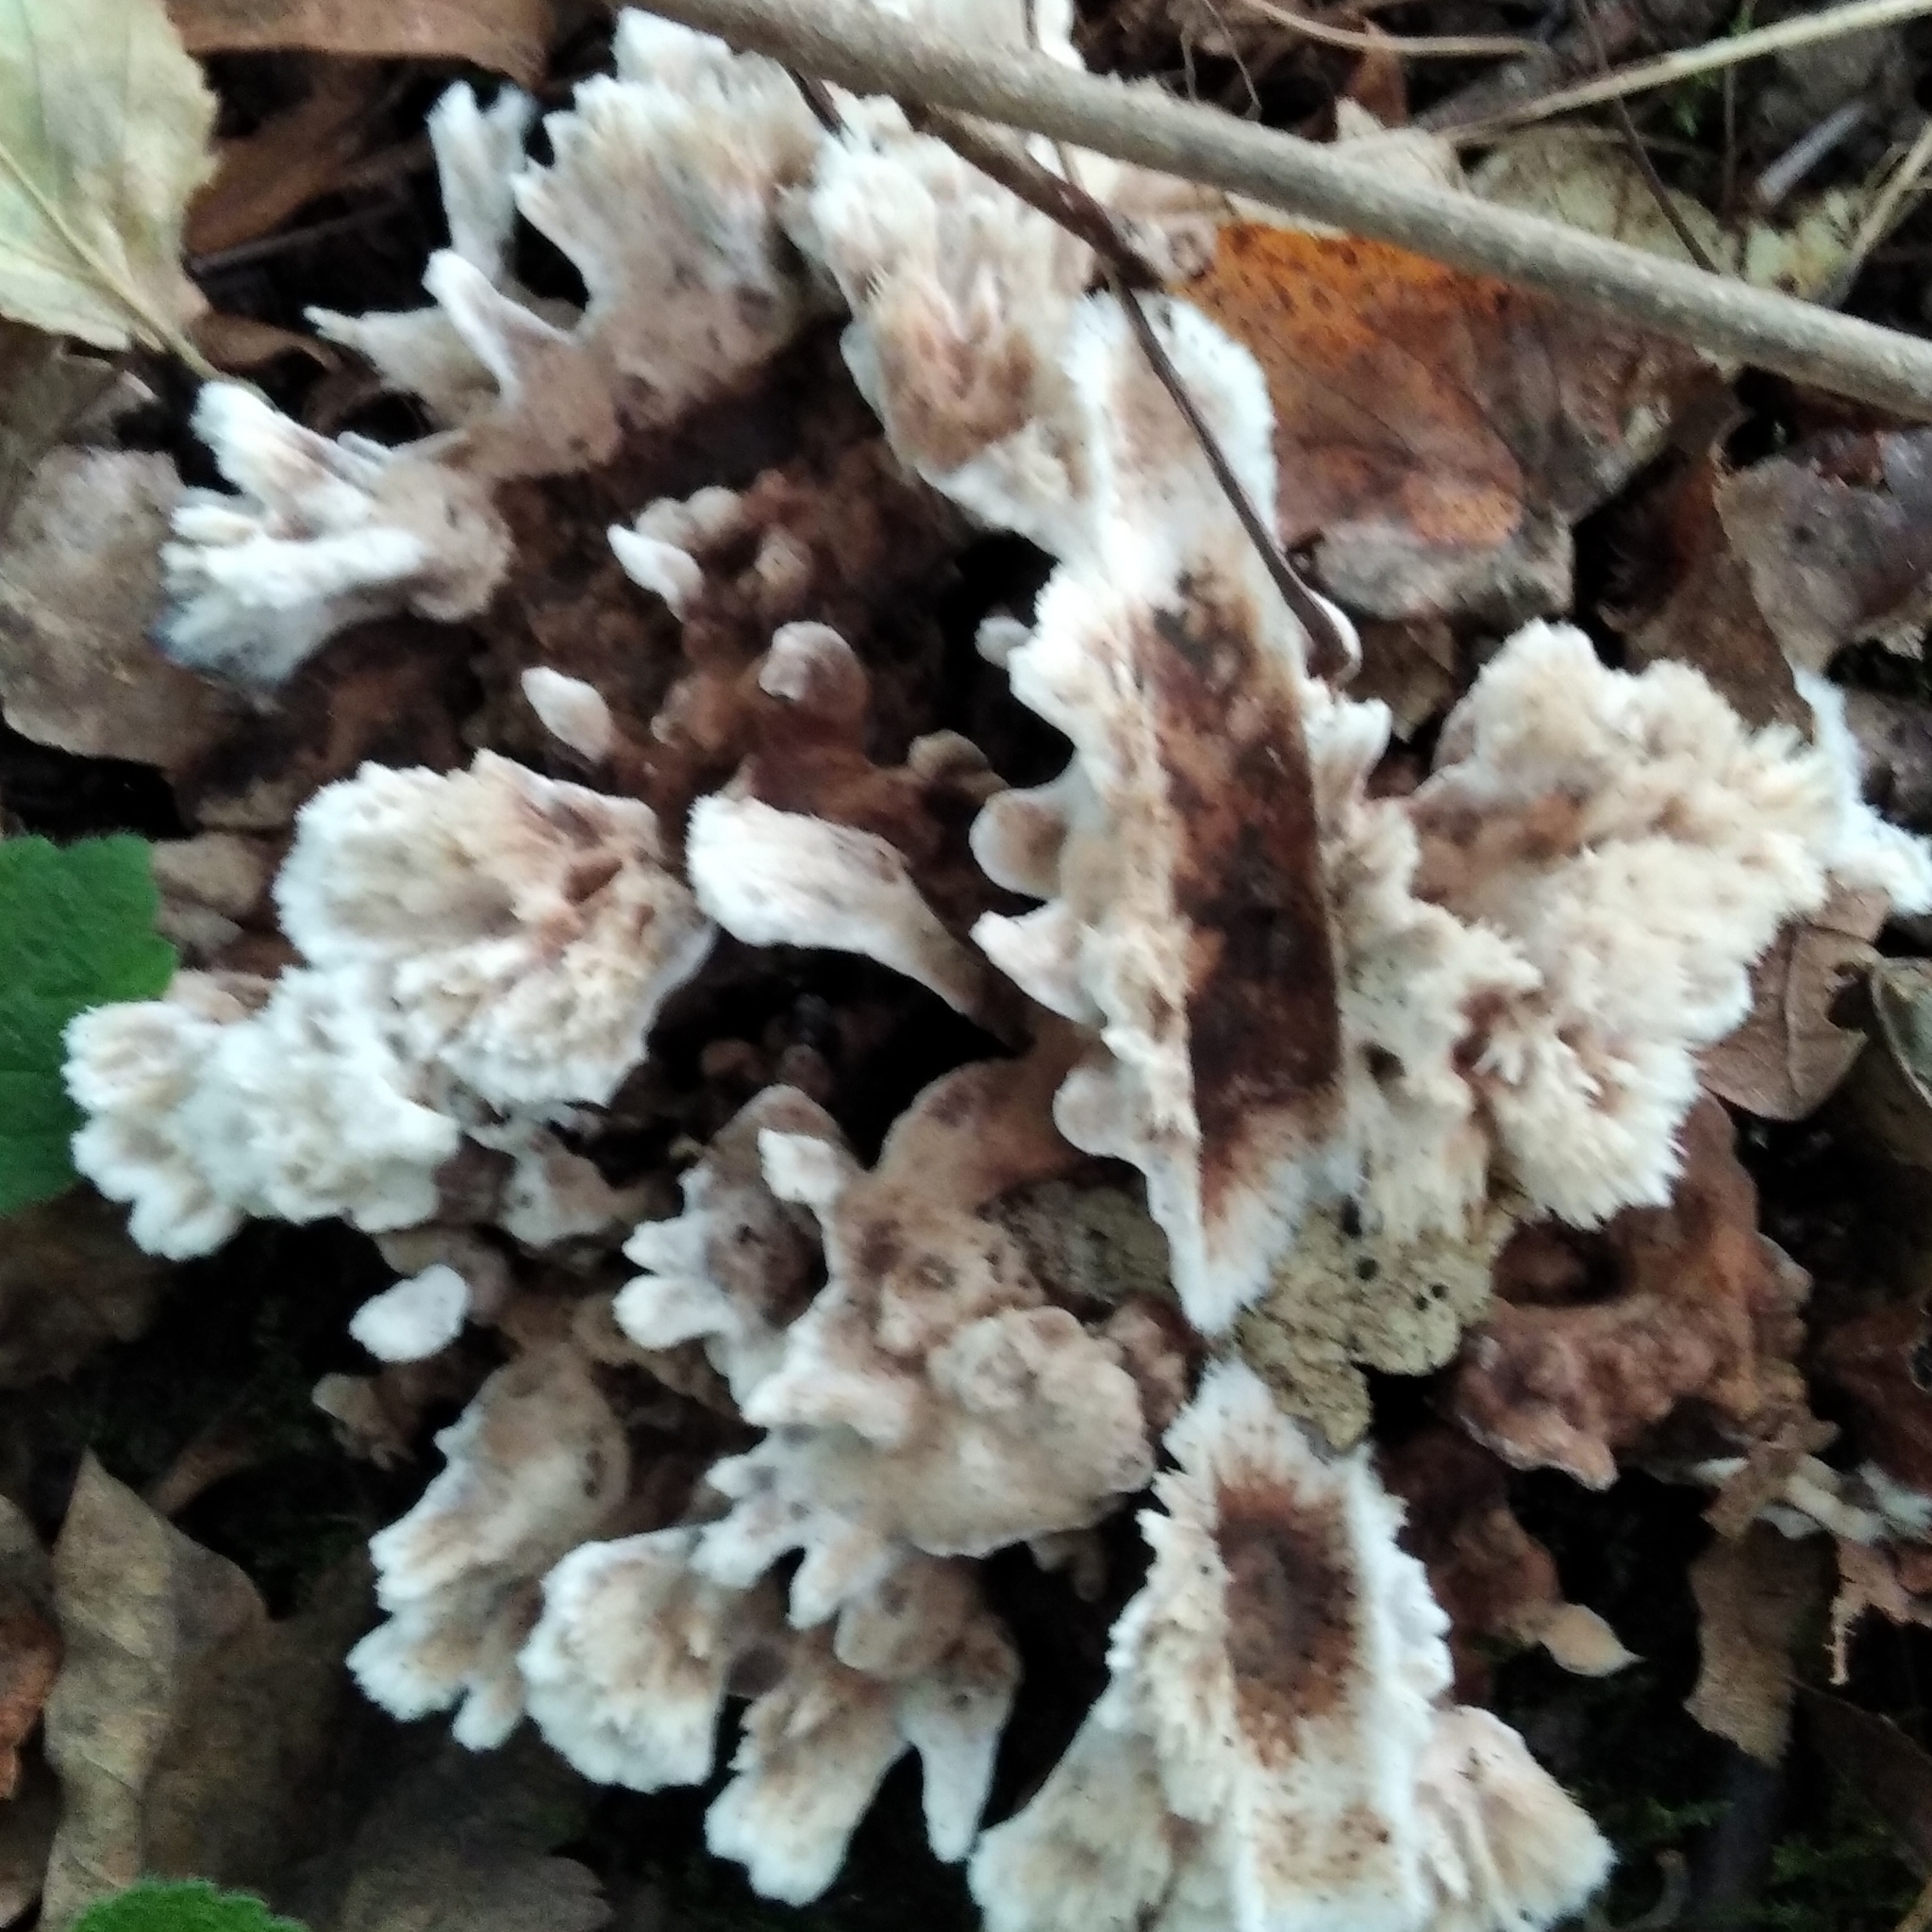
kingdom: Fungi
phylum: Basidiomycota
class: Agaricomycetes
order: Thelephorales
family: Thelephoraceae
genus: Thelephora
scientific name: Thelephora terrestris
